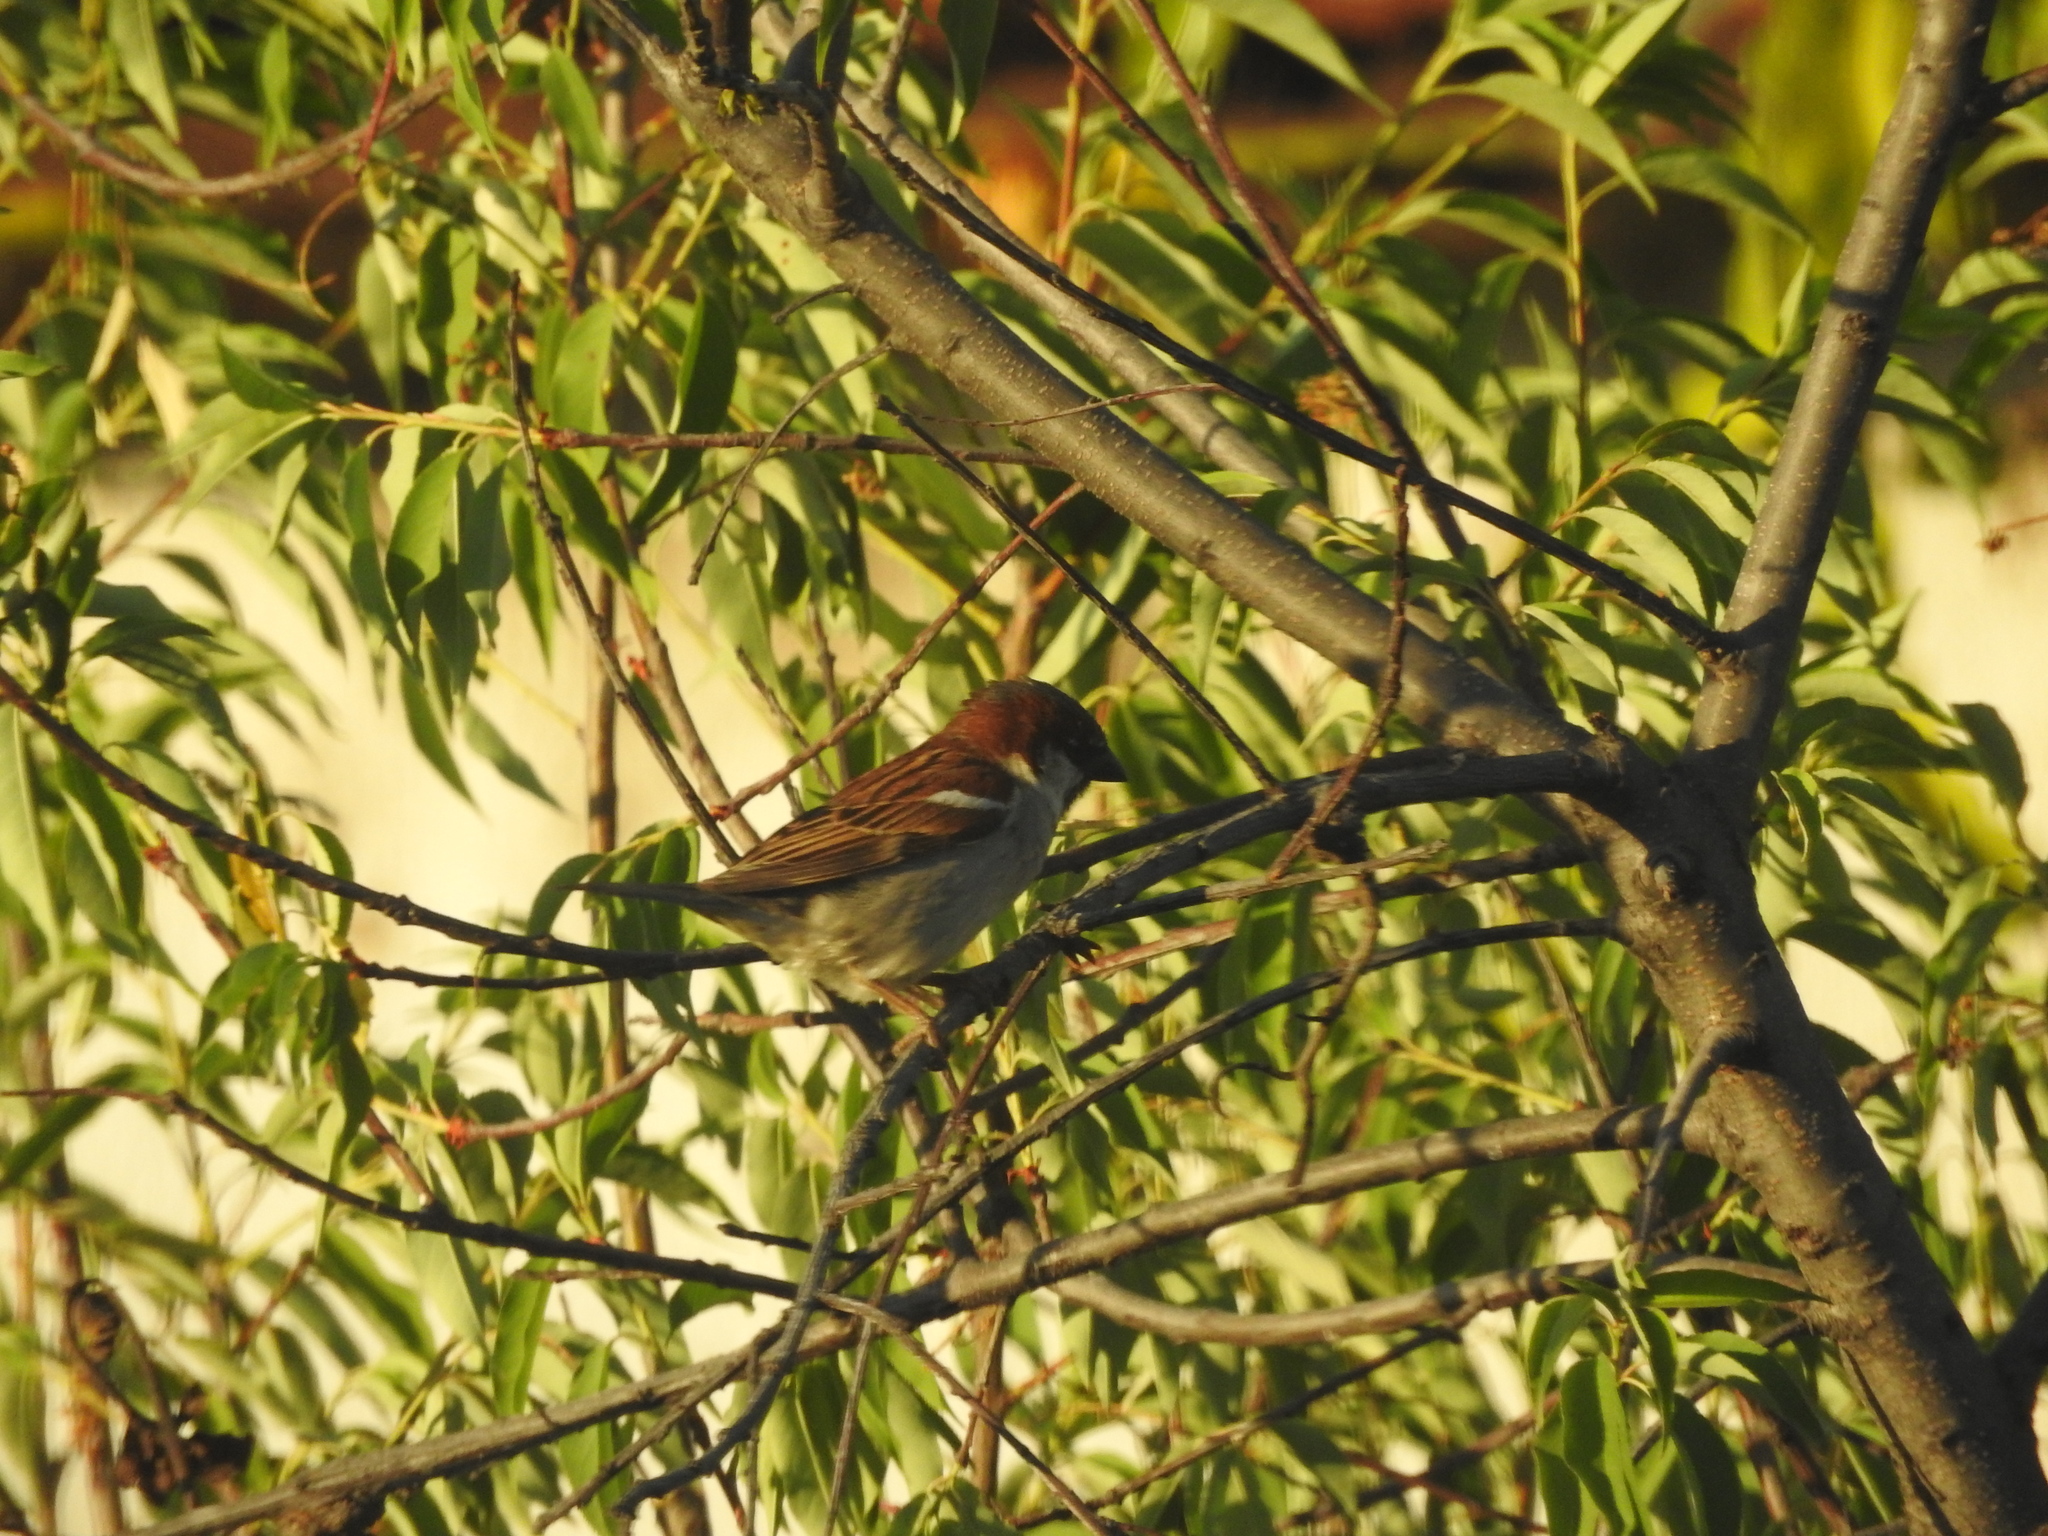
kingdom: Animalia
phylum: Chordata
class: Aves
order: Passeriformes
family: Passeridae
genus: Passer
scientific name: Passer domesticus
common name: House sparrow
